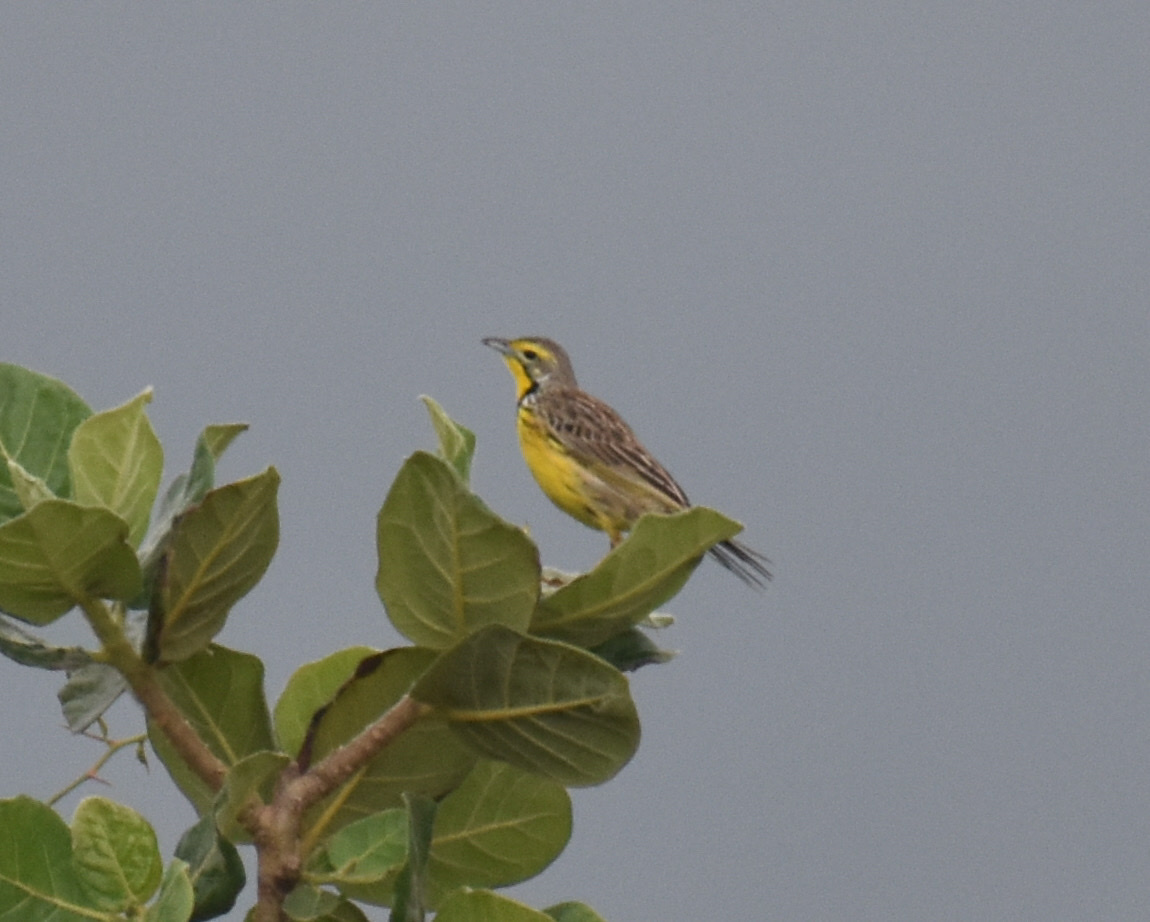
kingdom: Animalia
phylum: Chordata
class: Aves
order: Passeriformes
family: Motacillidae
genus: Macronyx
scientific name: Macronyx croceus
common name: Yellow-throated longclaw
